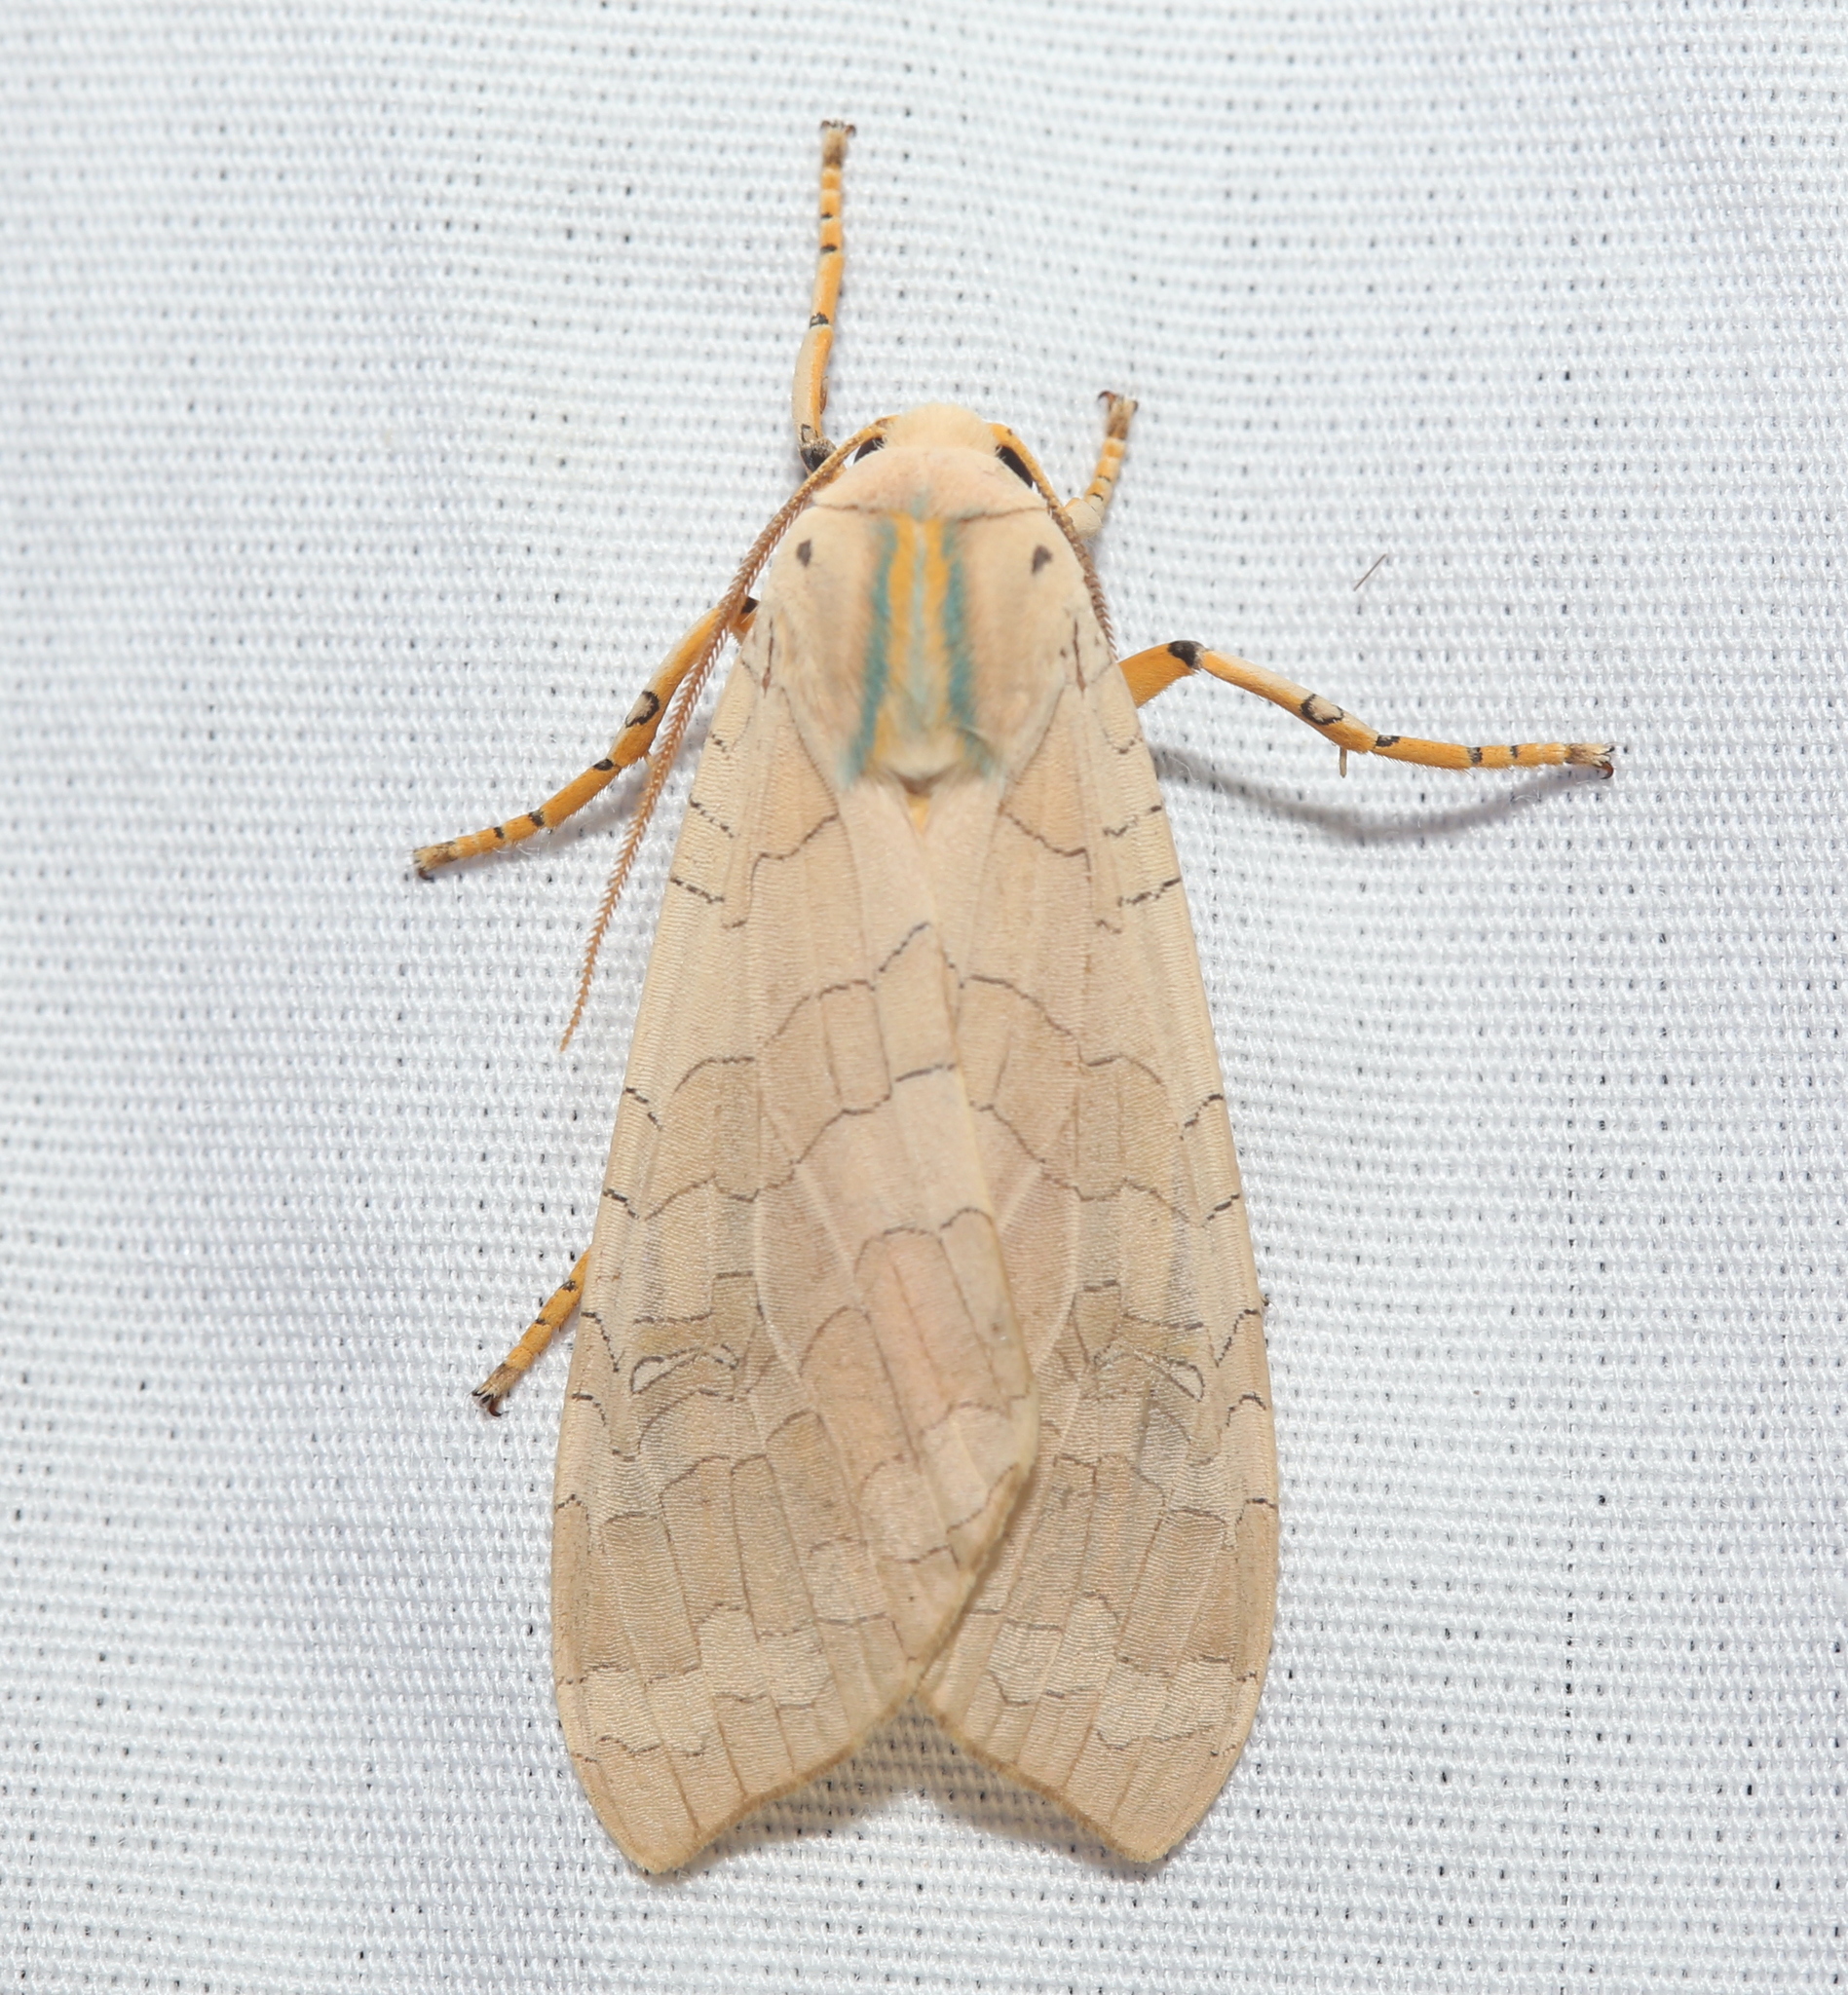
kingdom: Animalia
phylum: Arthropoda
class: Insecta
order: Lepidoptera
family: Erebidae
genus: Halysidota
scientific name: Halysidota
